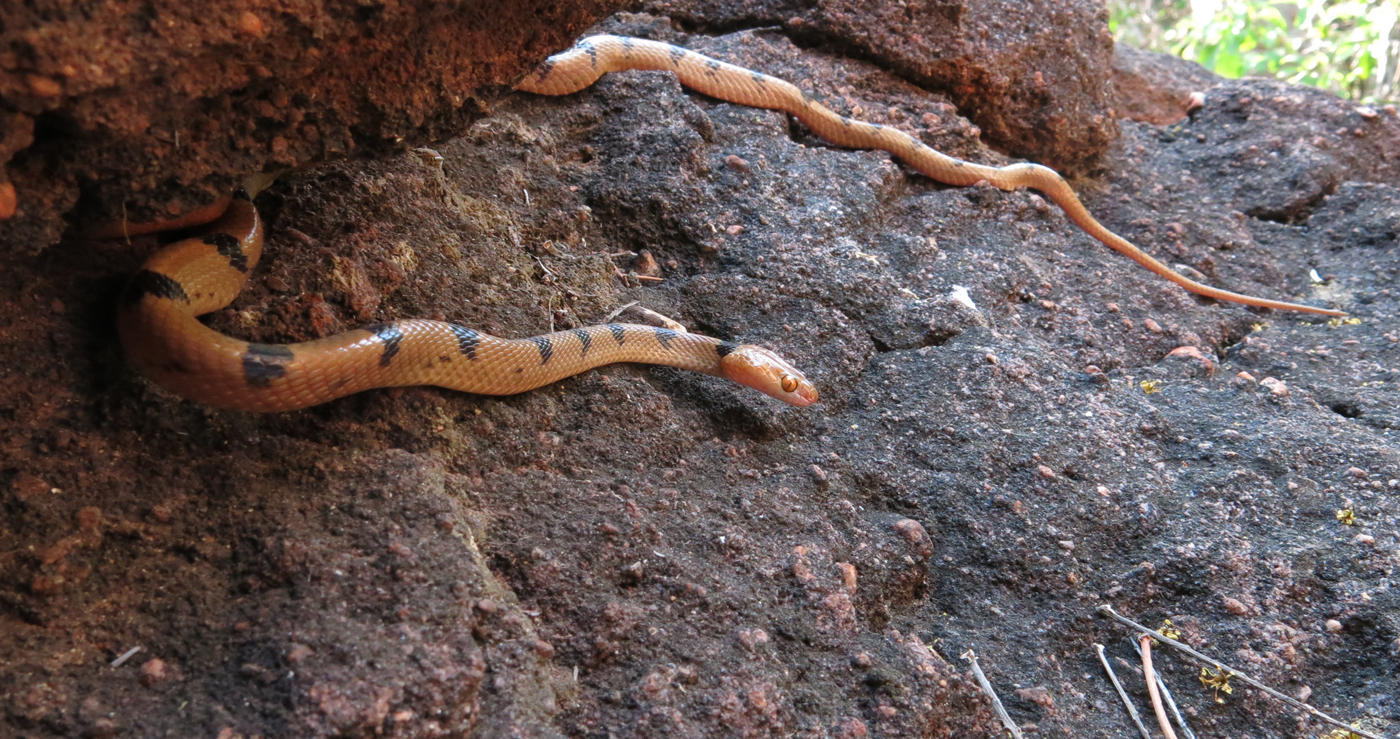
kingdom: Animalia
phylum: Chordata
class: Squamata
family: Colubridae
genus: Telescopus
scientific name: Telescopus semiannulatus
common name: Common tiger snake
